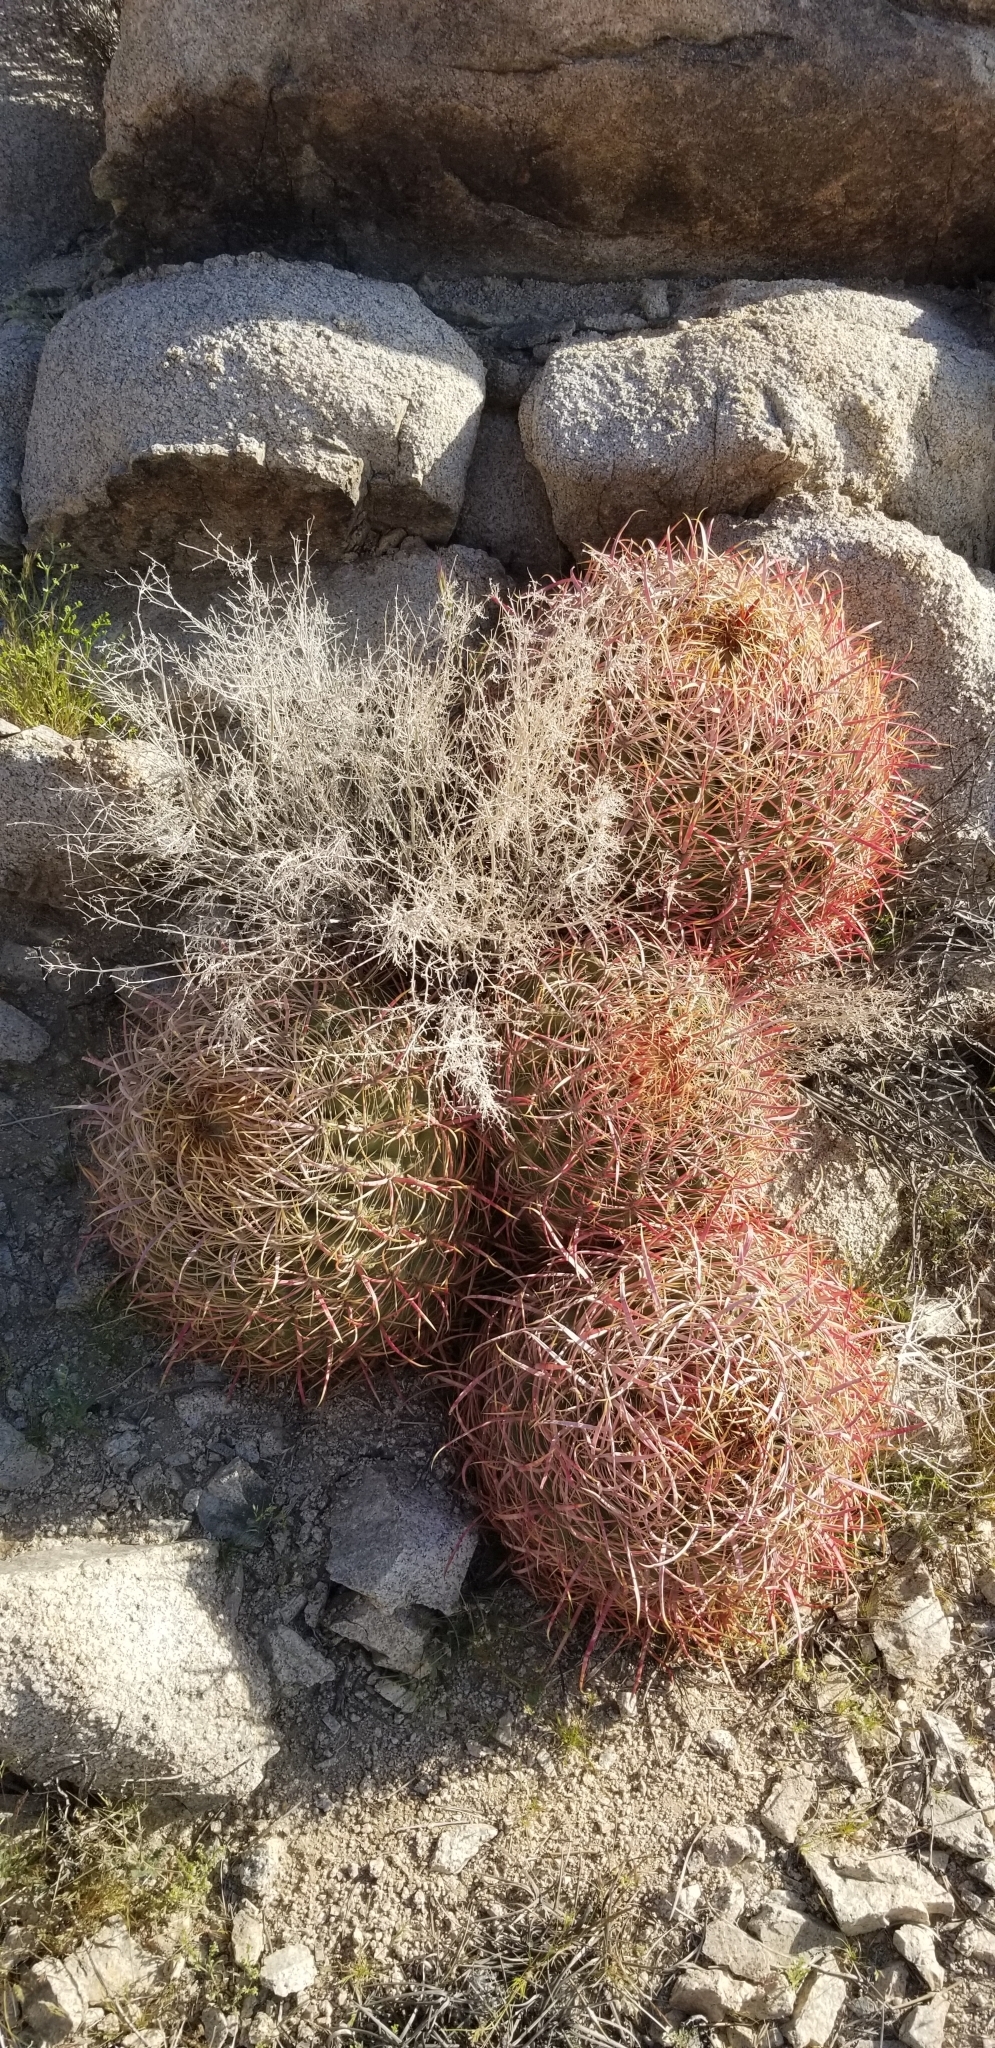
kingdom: Plantae
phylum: Tracheophyta
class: Magnoliopsida
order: Caryophyllales
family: Cactaceae
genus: Ferocactus
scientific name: Ferocactus cylindraceus
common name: California barrel cactus
